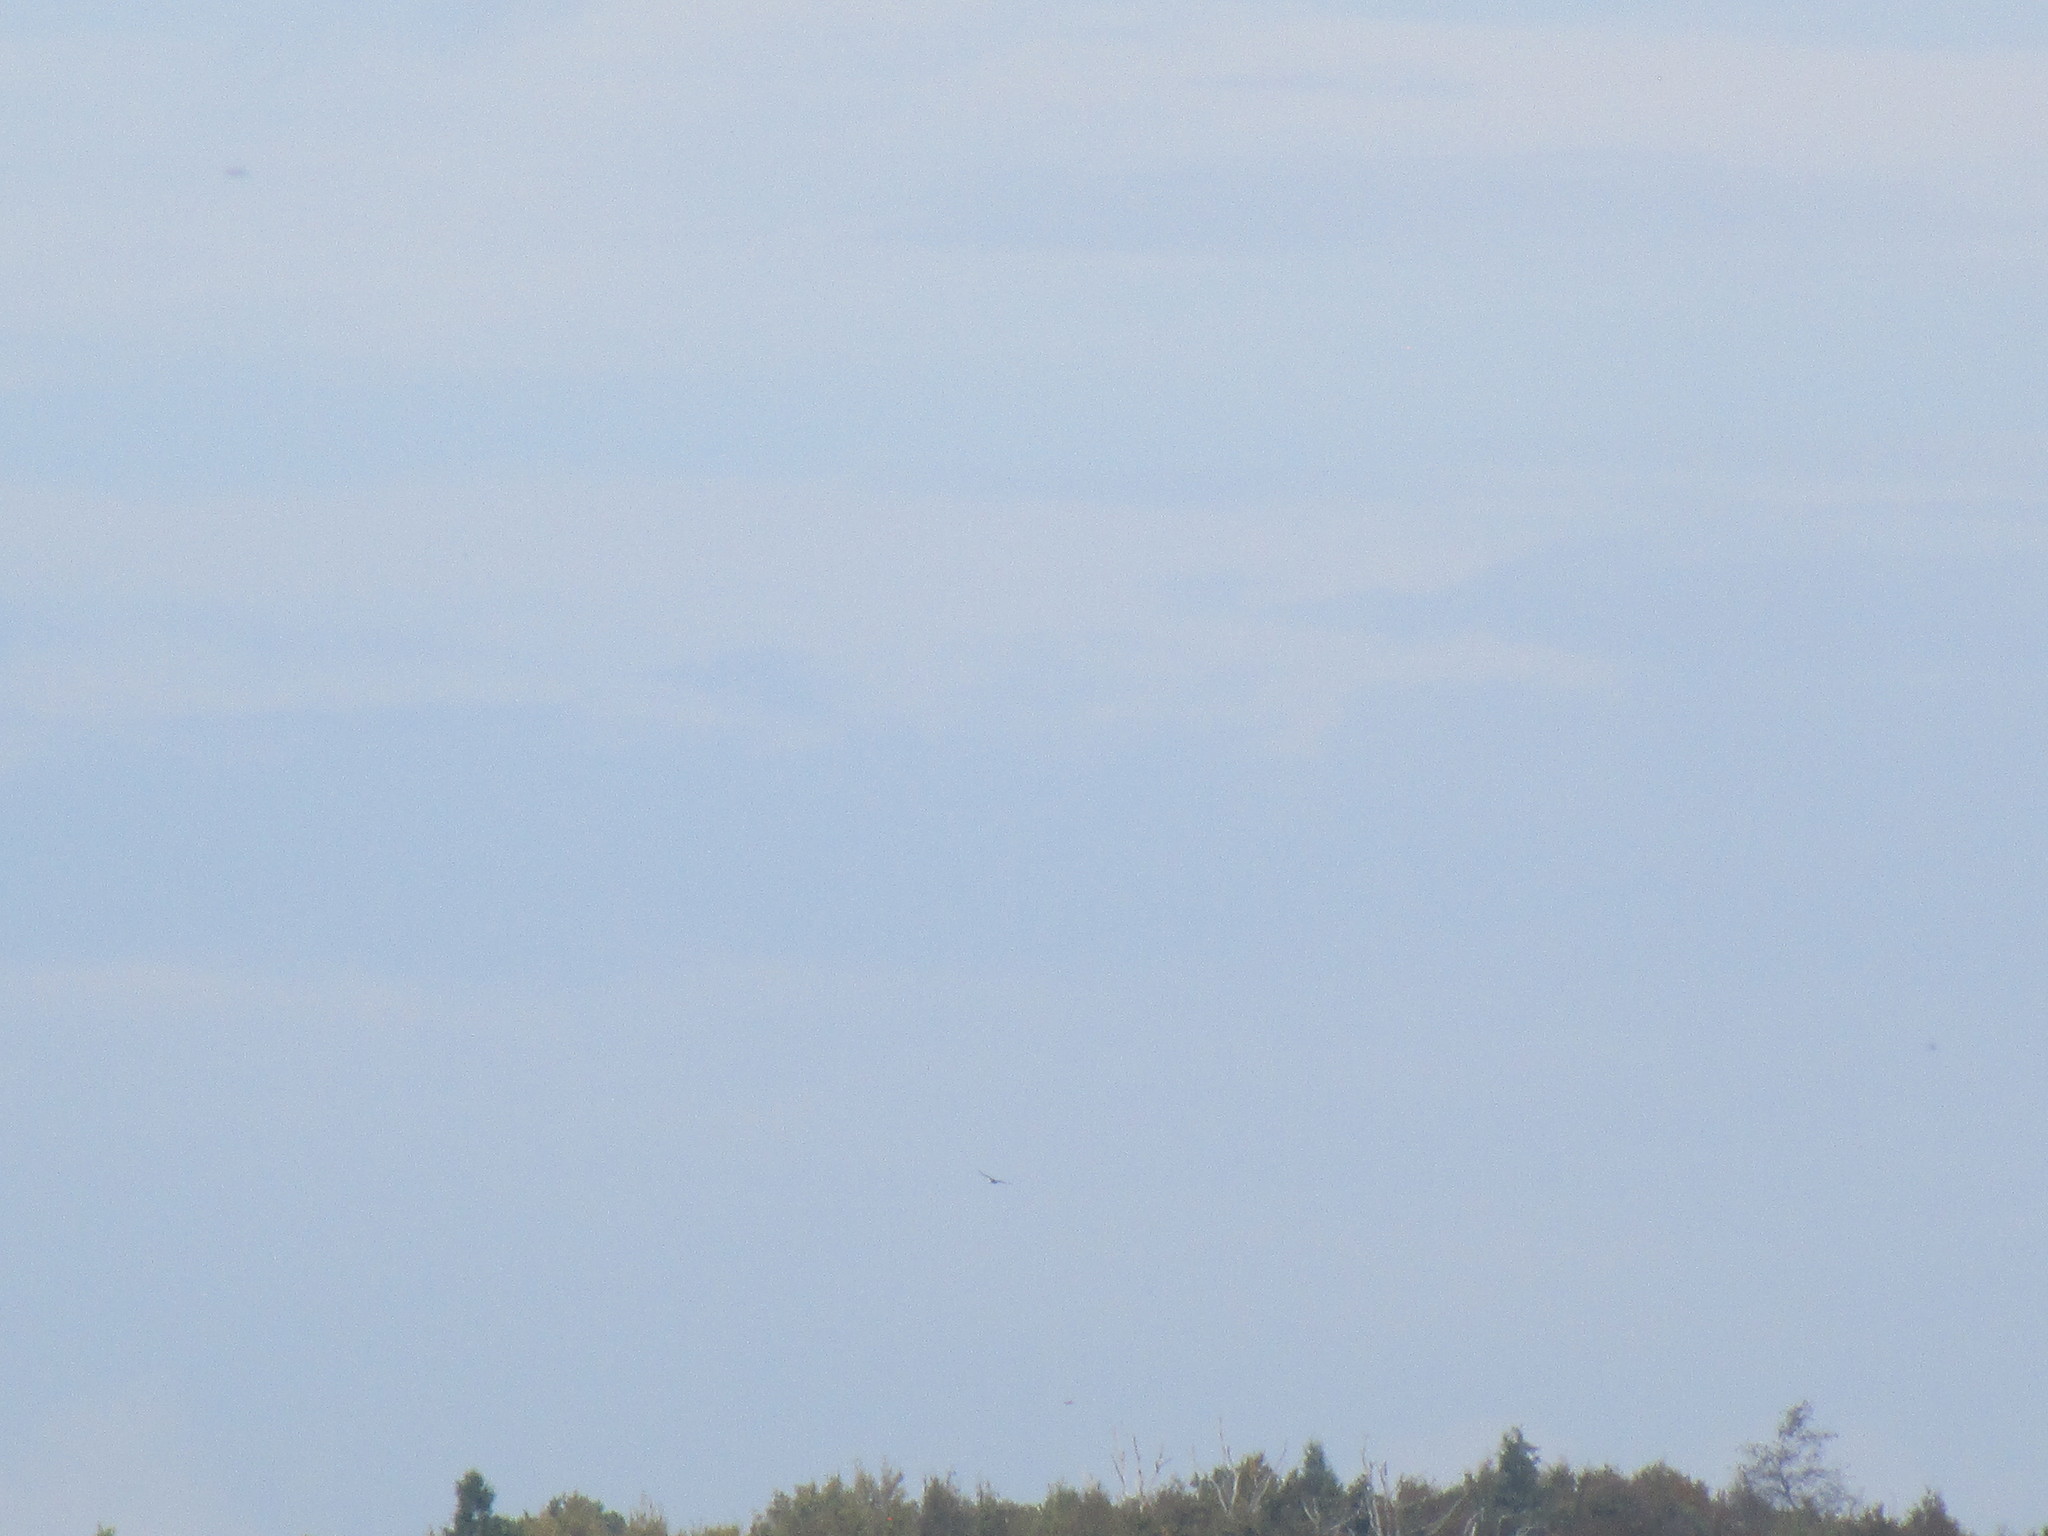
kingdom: Animalia
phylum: Chordata
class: Aves
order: Accipitriformes
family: Cathartidae
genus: Cathartes
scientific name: Cathartes aura
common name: Turkey vulture
